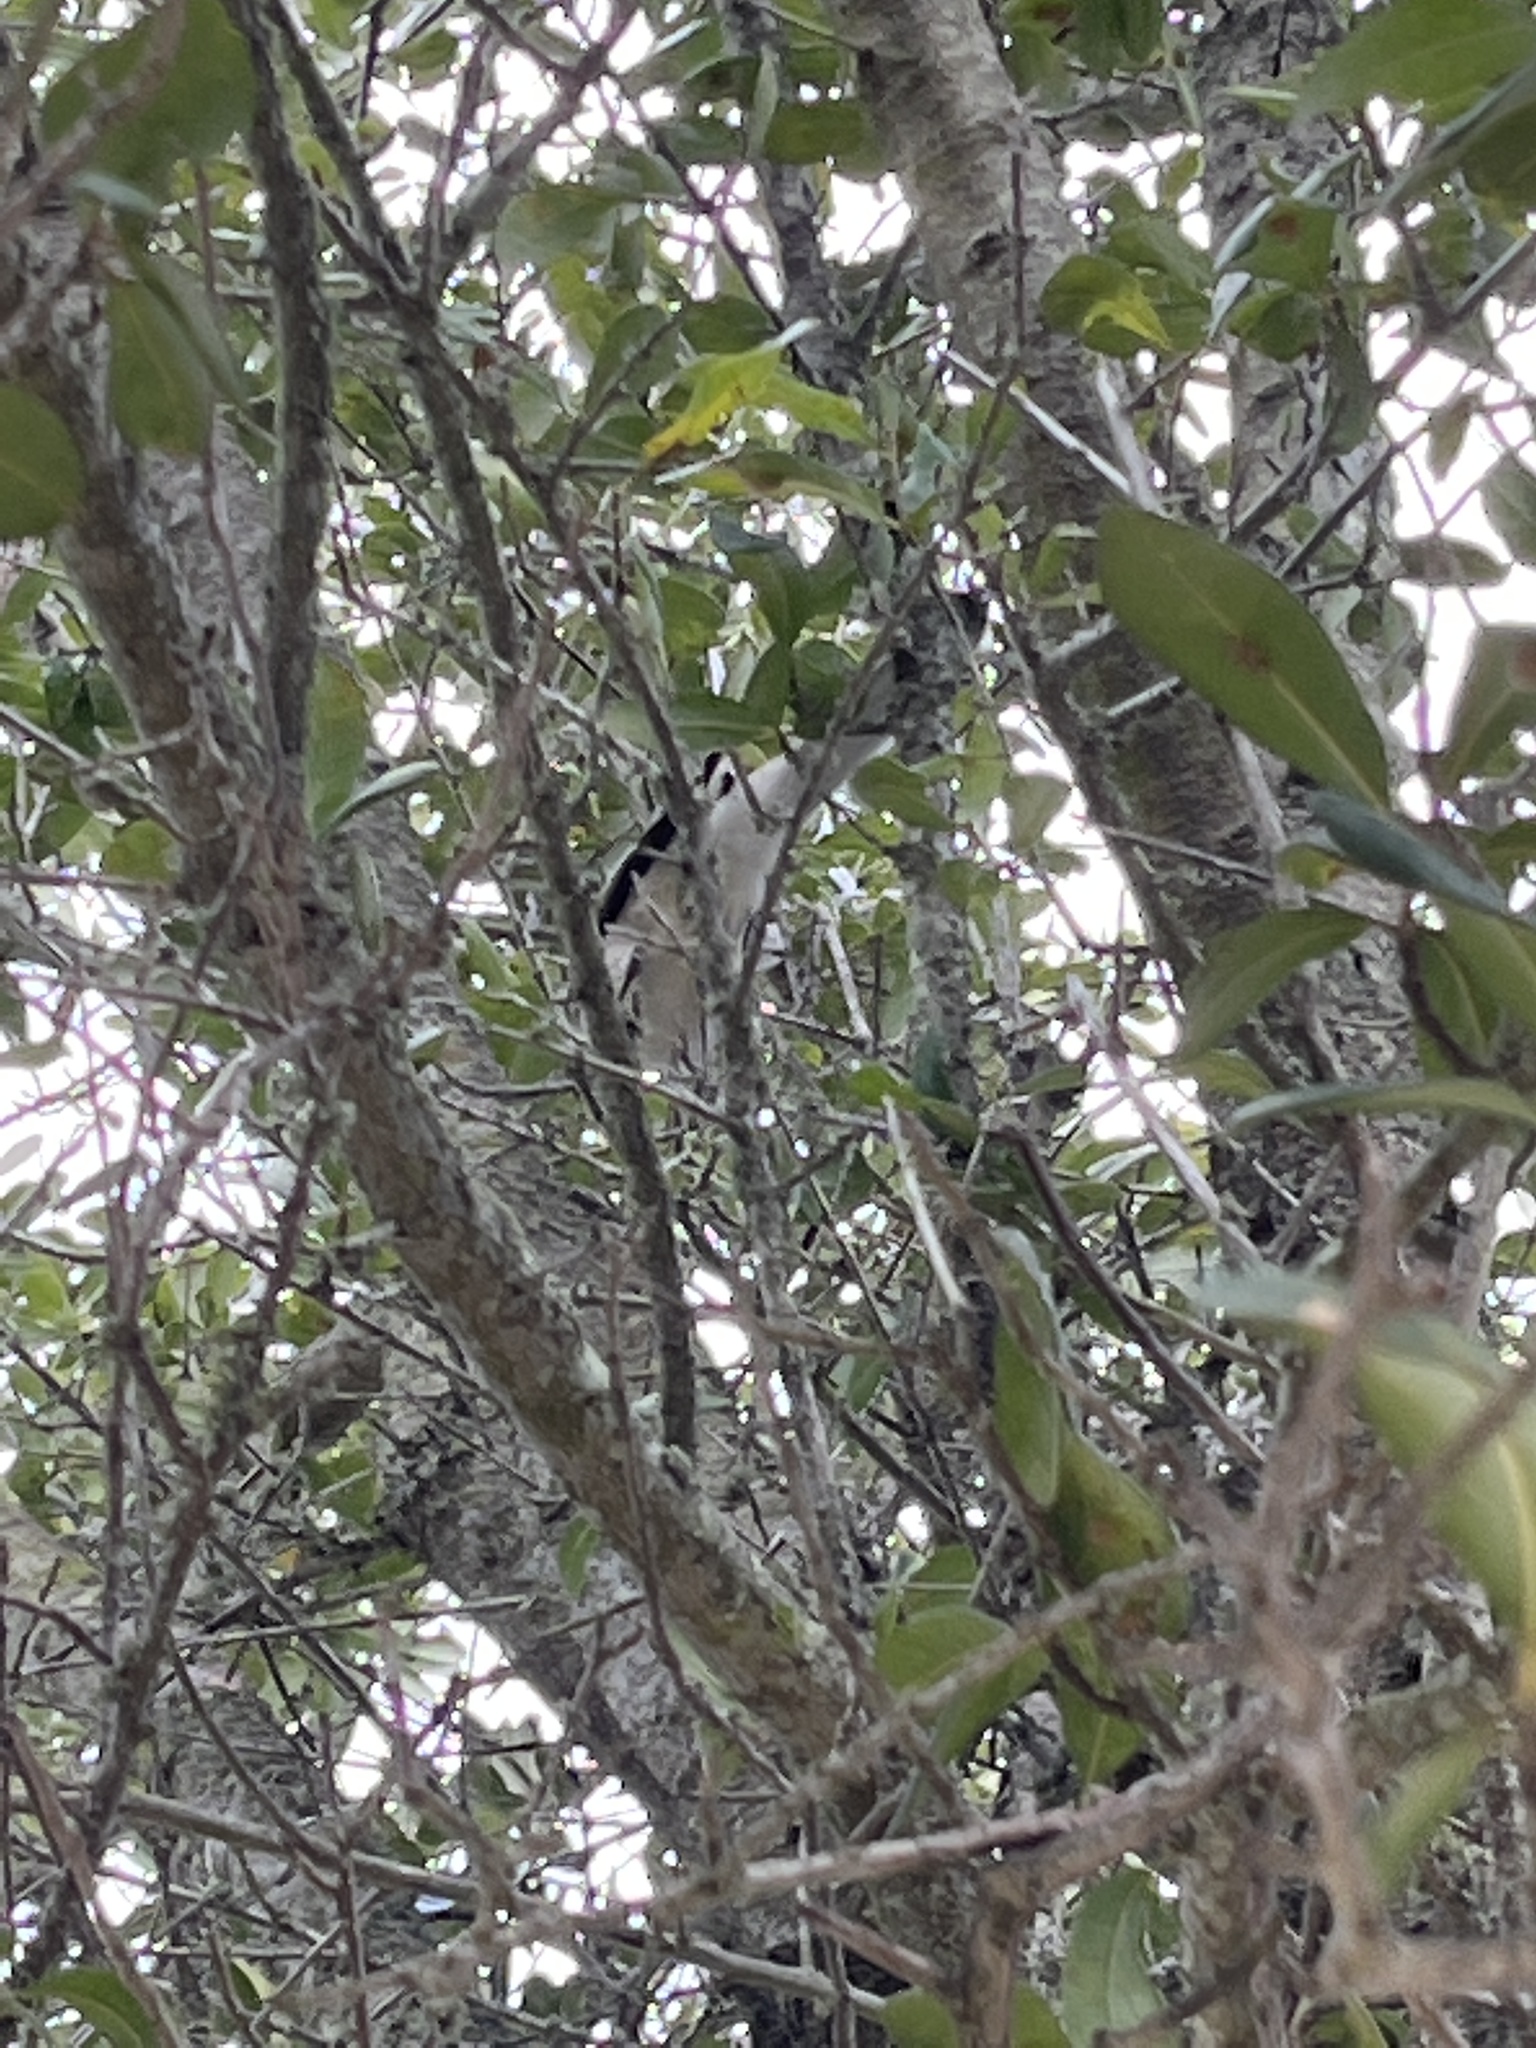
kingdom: Animalia
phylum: Chordata
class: Aves
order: Passeriformes
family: Mimidae
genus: Mimus
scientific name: Mimus polyglottos
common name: Northern mockingbird
